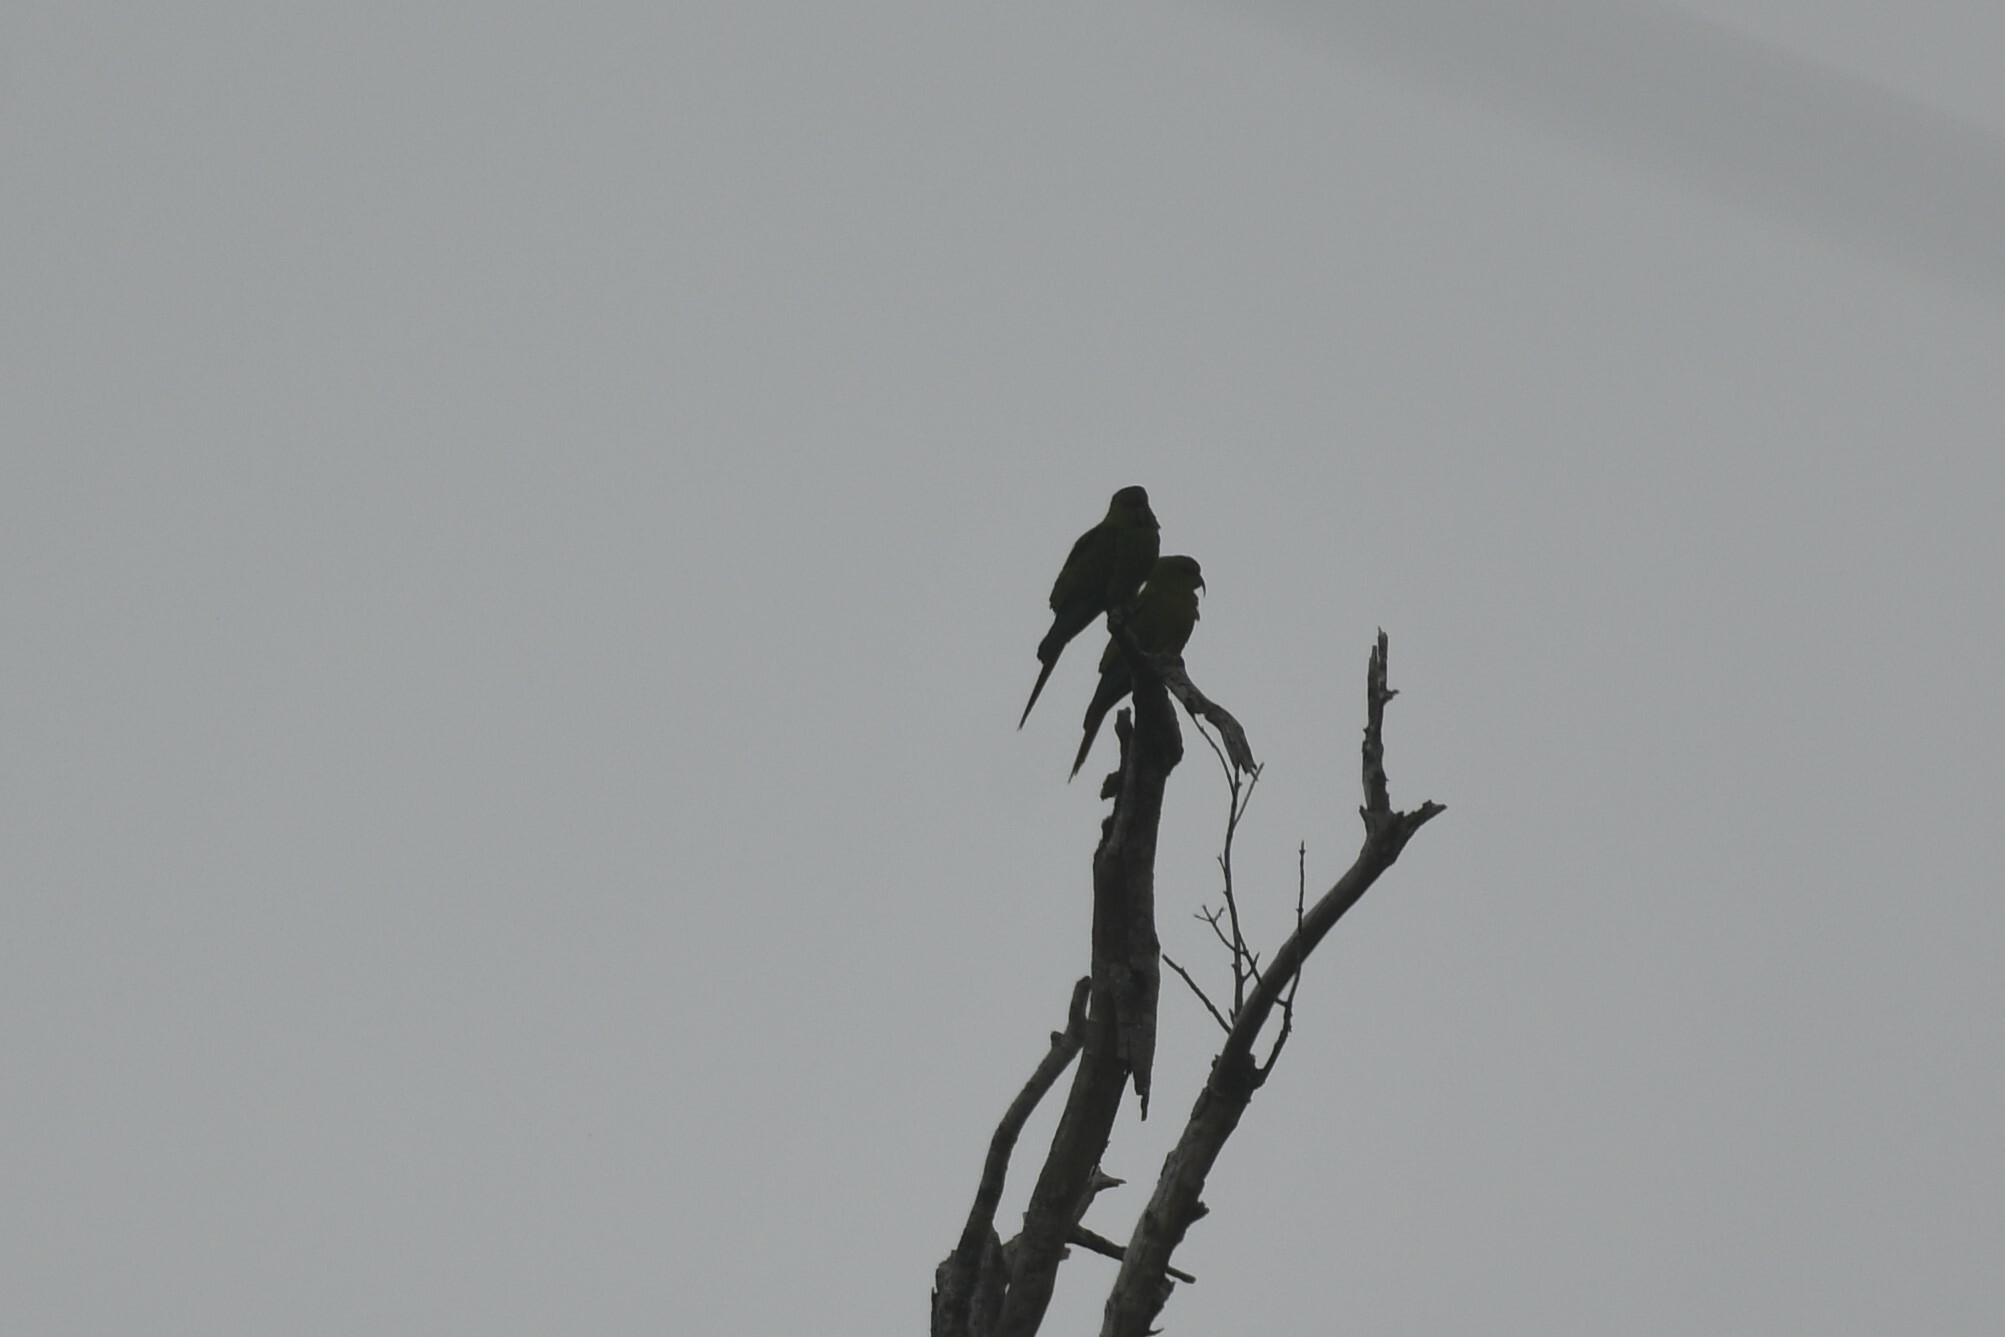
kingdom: Animalia
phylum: Chordata
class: Aves
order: Psittaciformes
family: Psittacidae
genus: Enicognathus
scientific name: Enicognathus leptorhynchus
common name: Slender-billed parakeet
